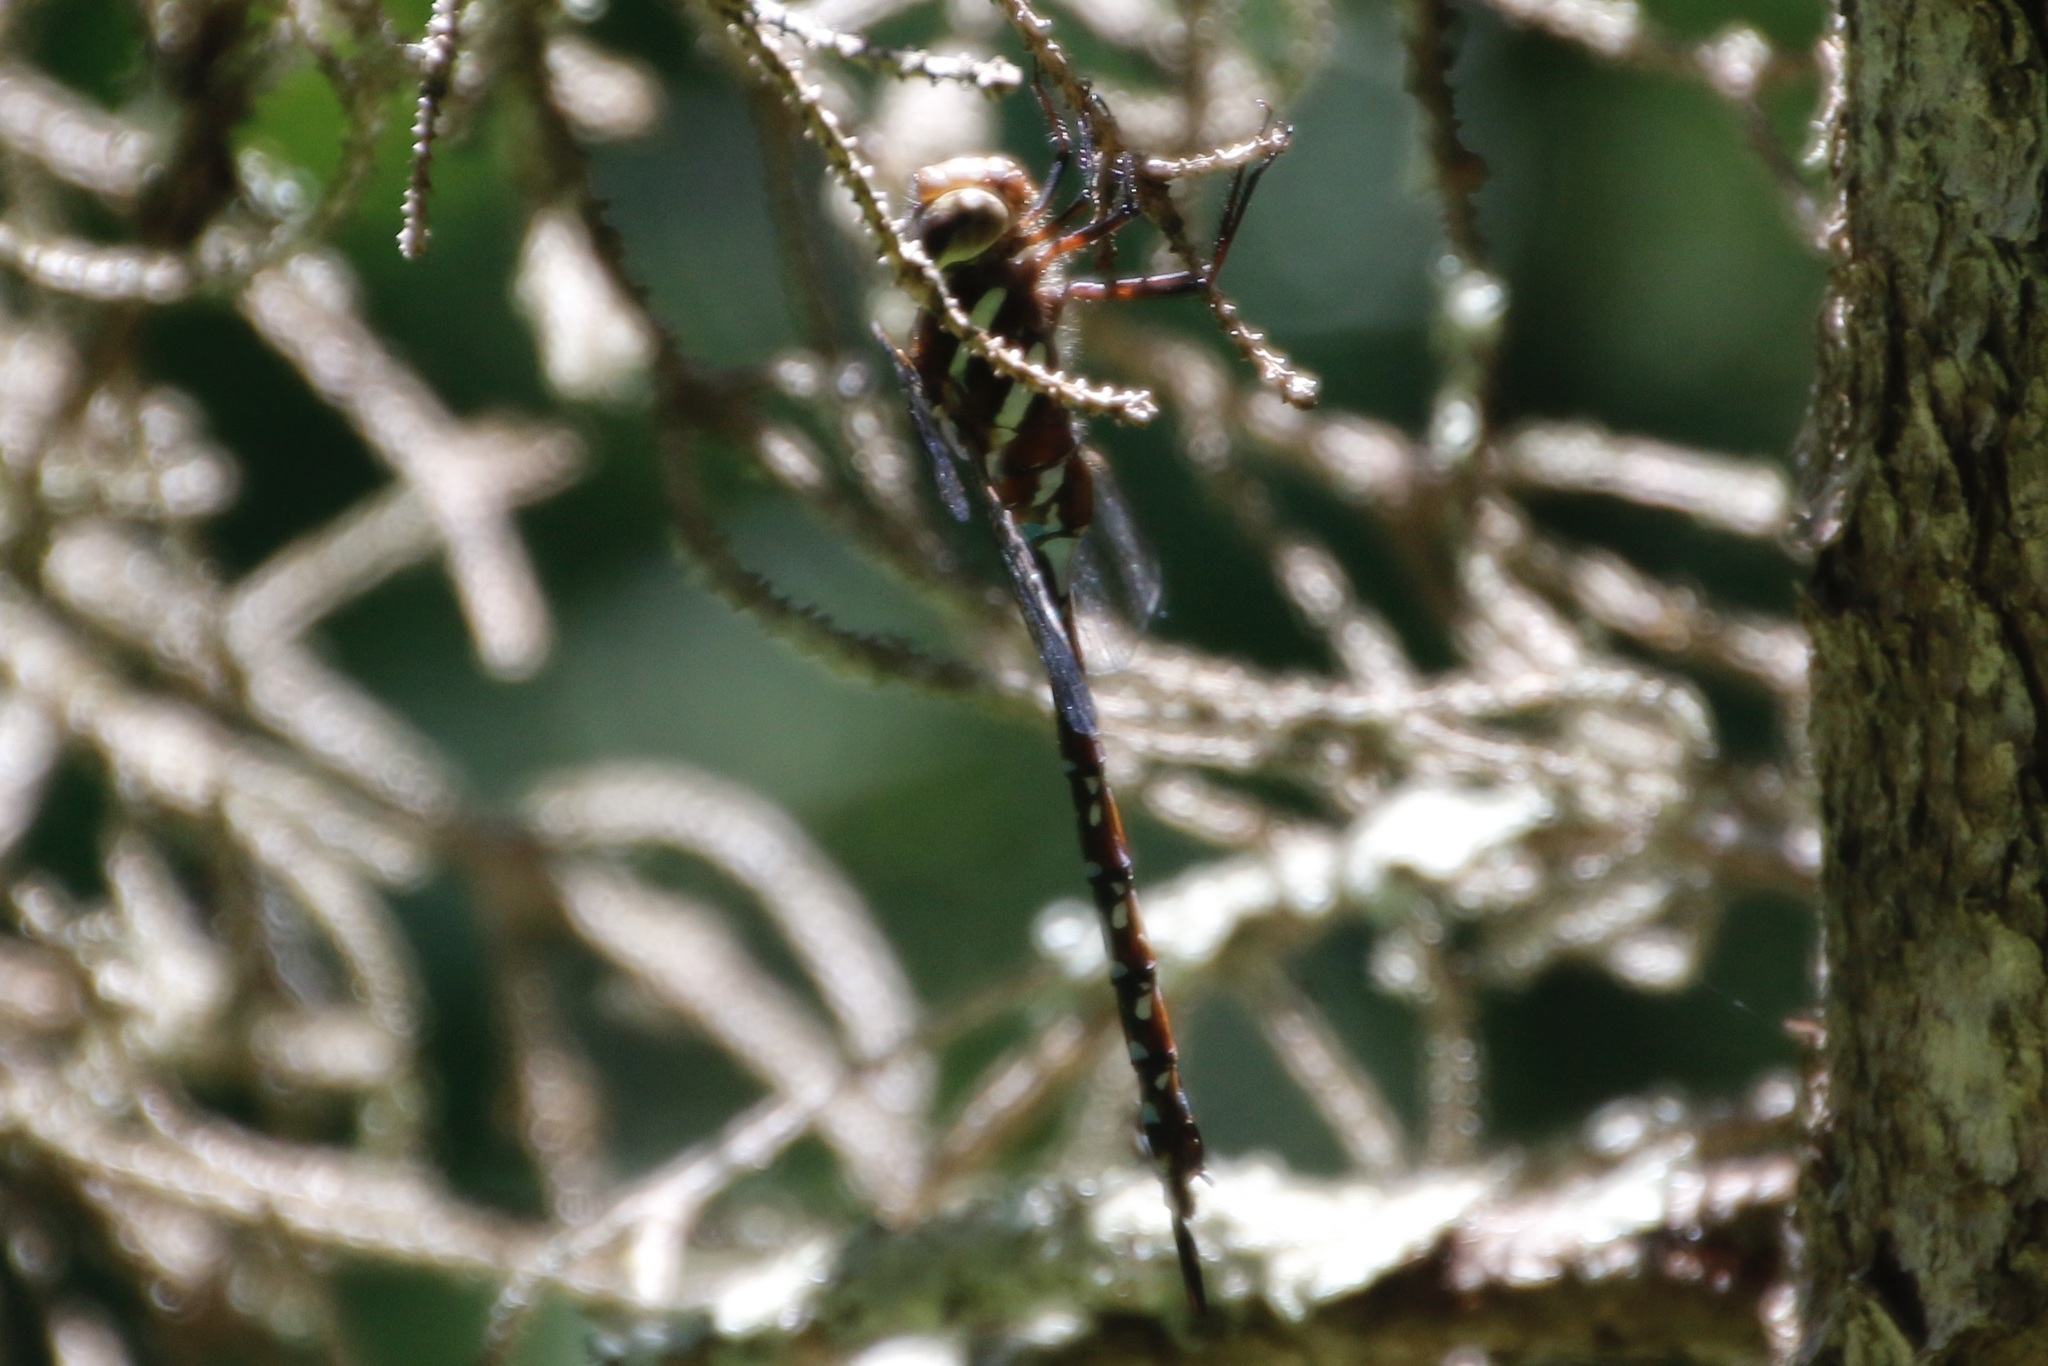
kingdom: Animalia
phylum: Arthropoda
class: Insecta
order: Odonata
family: Aeshnidae
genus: Aeshna
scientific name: Aeshna tuberculifera
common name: Aeschne à tubercules
